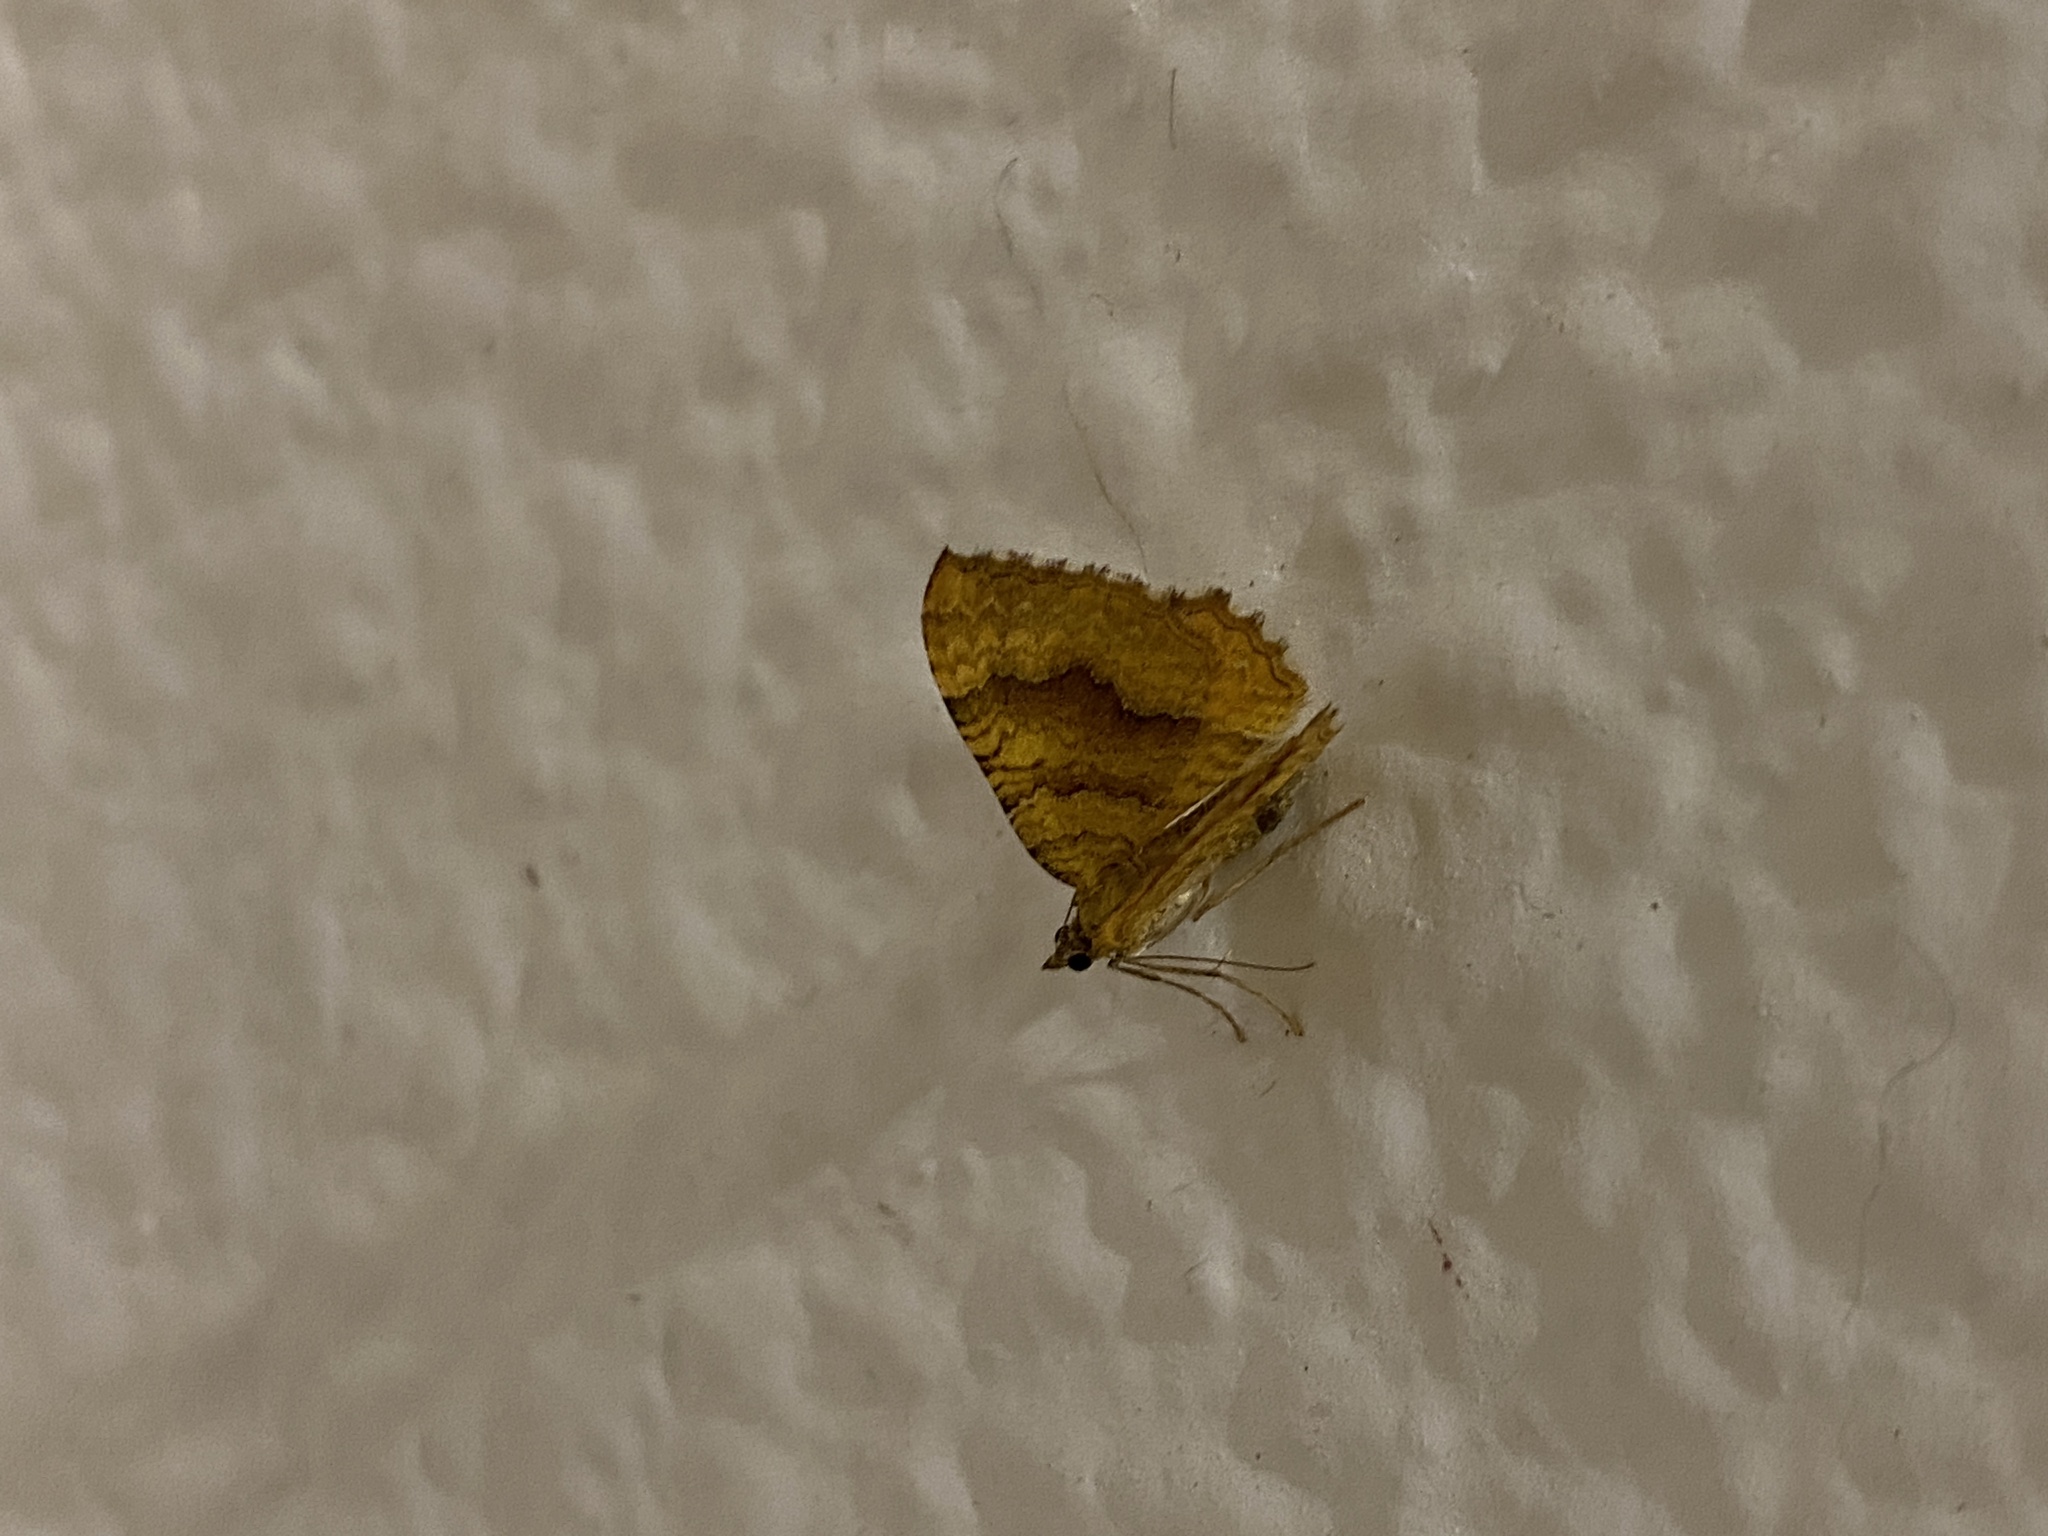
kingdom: Animalia
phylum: Arthropoda
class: Insecta
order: Lepidoptera
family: Geometridae
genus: Camptogramma
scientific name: Camptogramma bilineata
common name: Yellow shell
